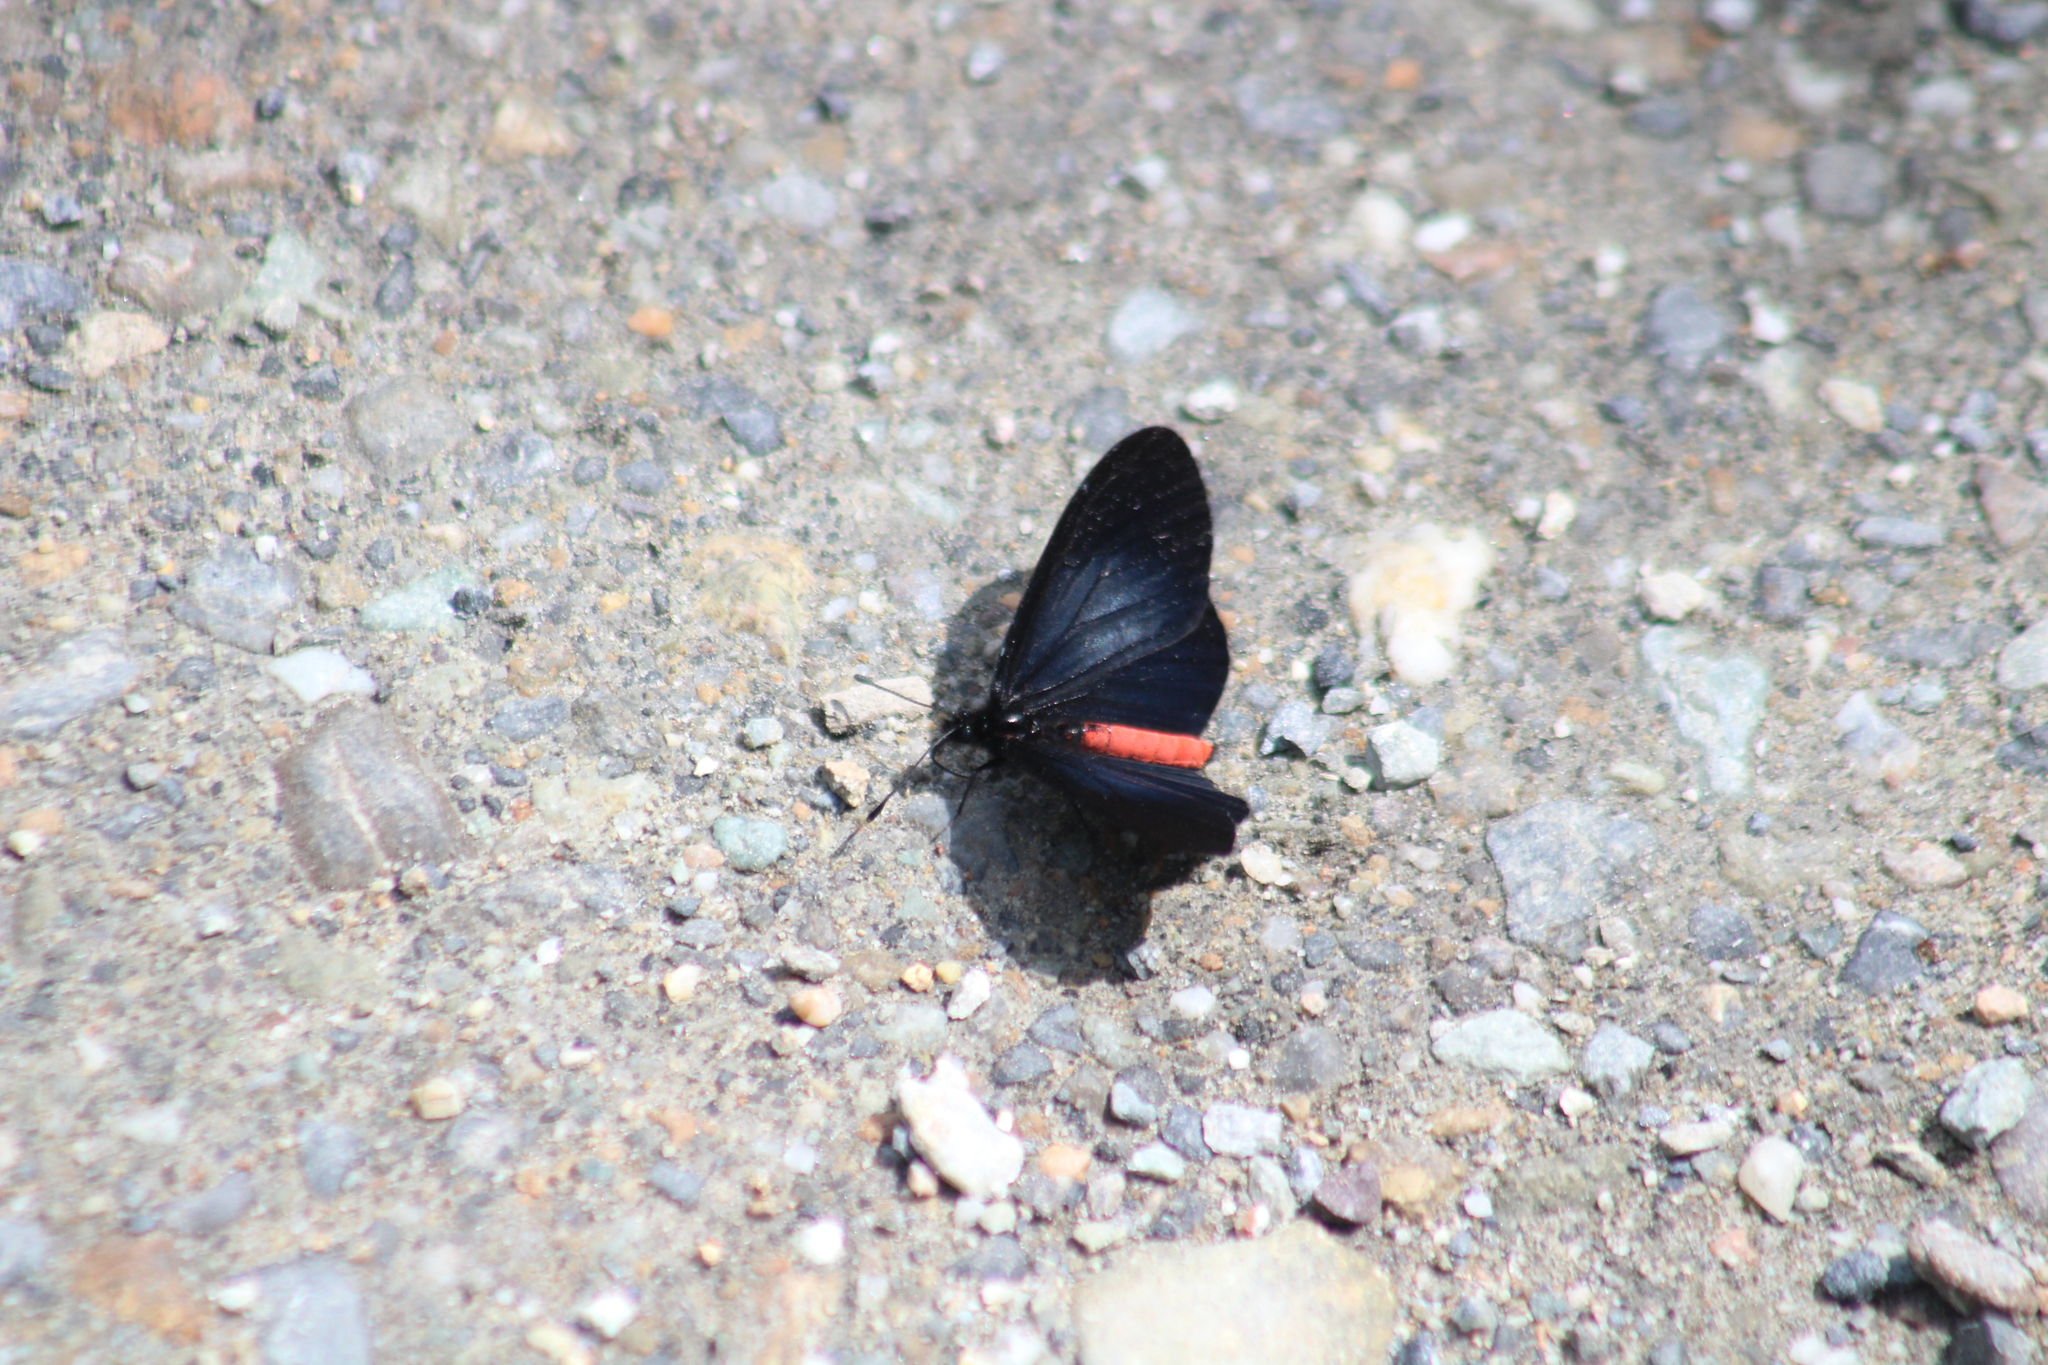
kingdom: Animalia
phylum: Arthropoda
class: Insecta
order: Lepidoptera
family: Nymphalidae
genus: Actinote
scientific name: Actinote neleus
